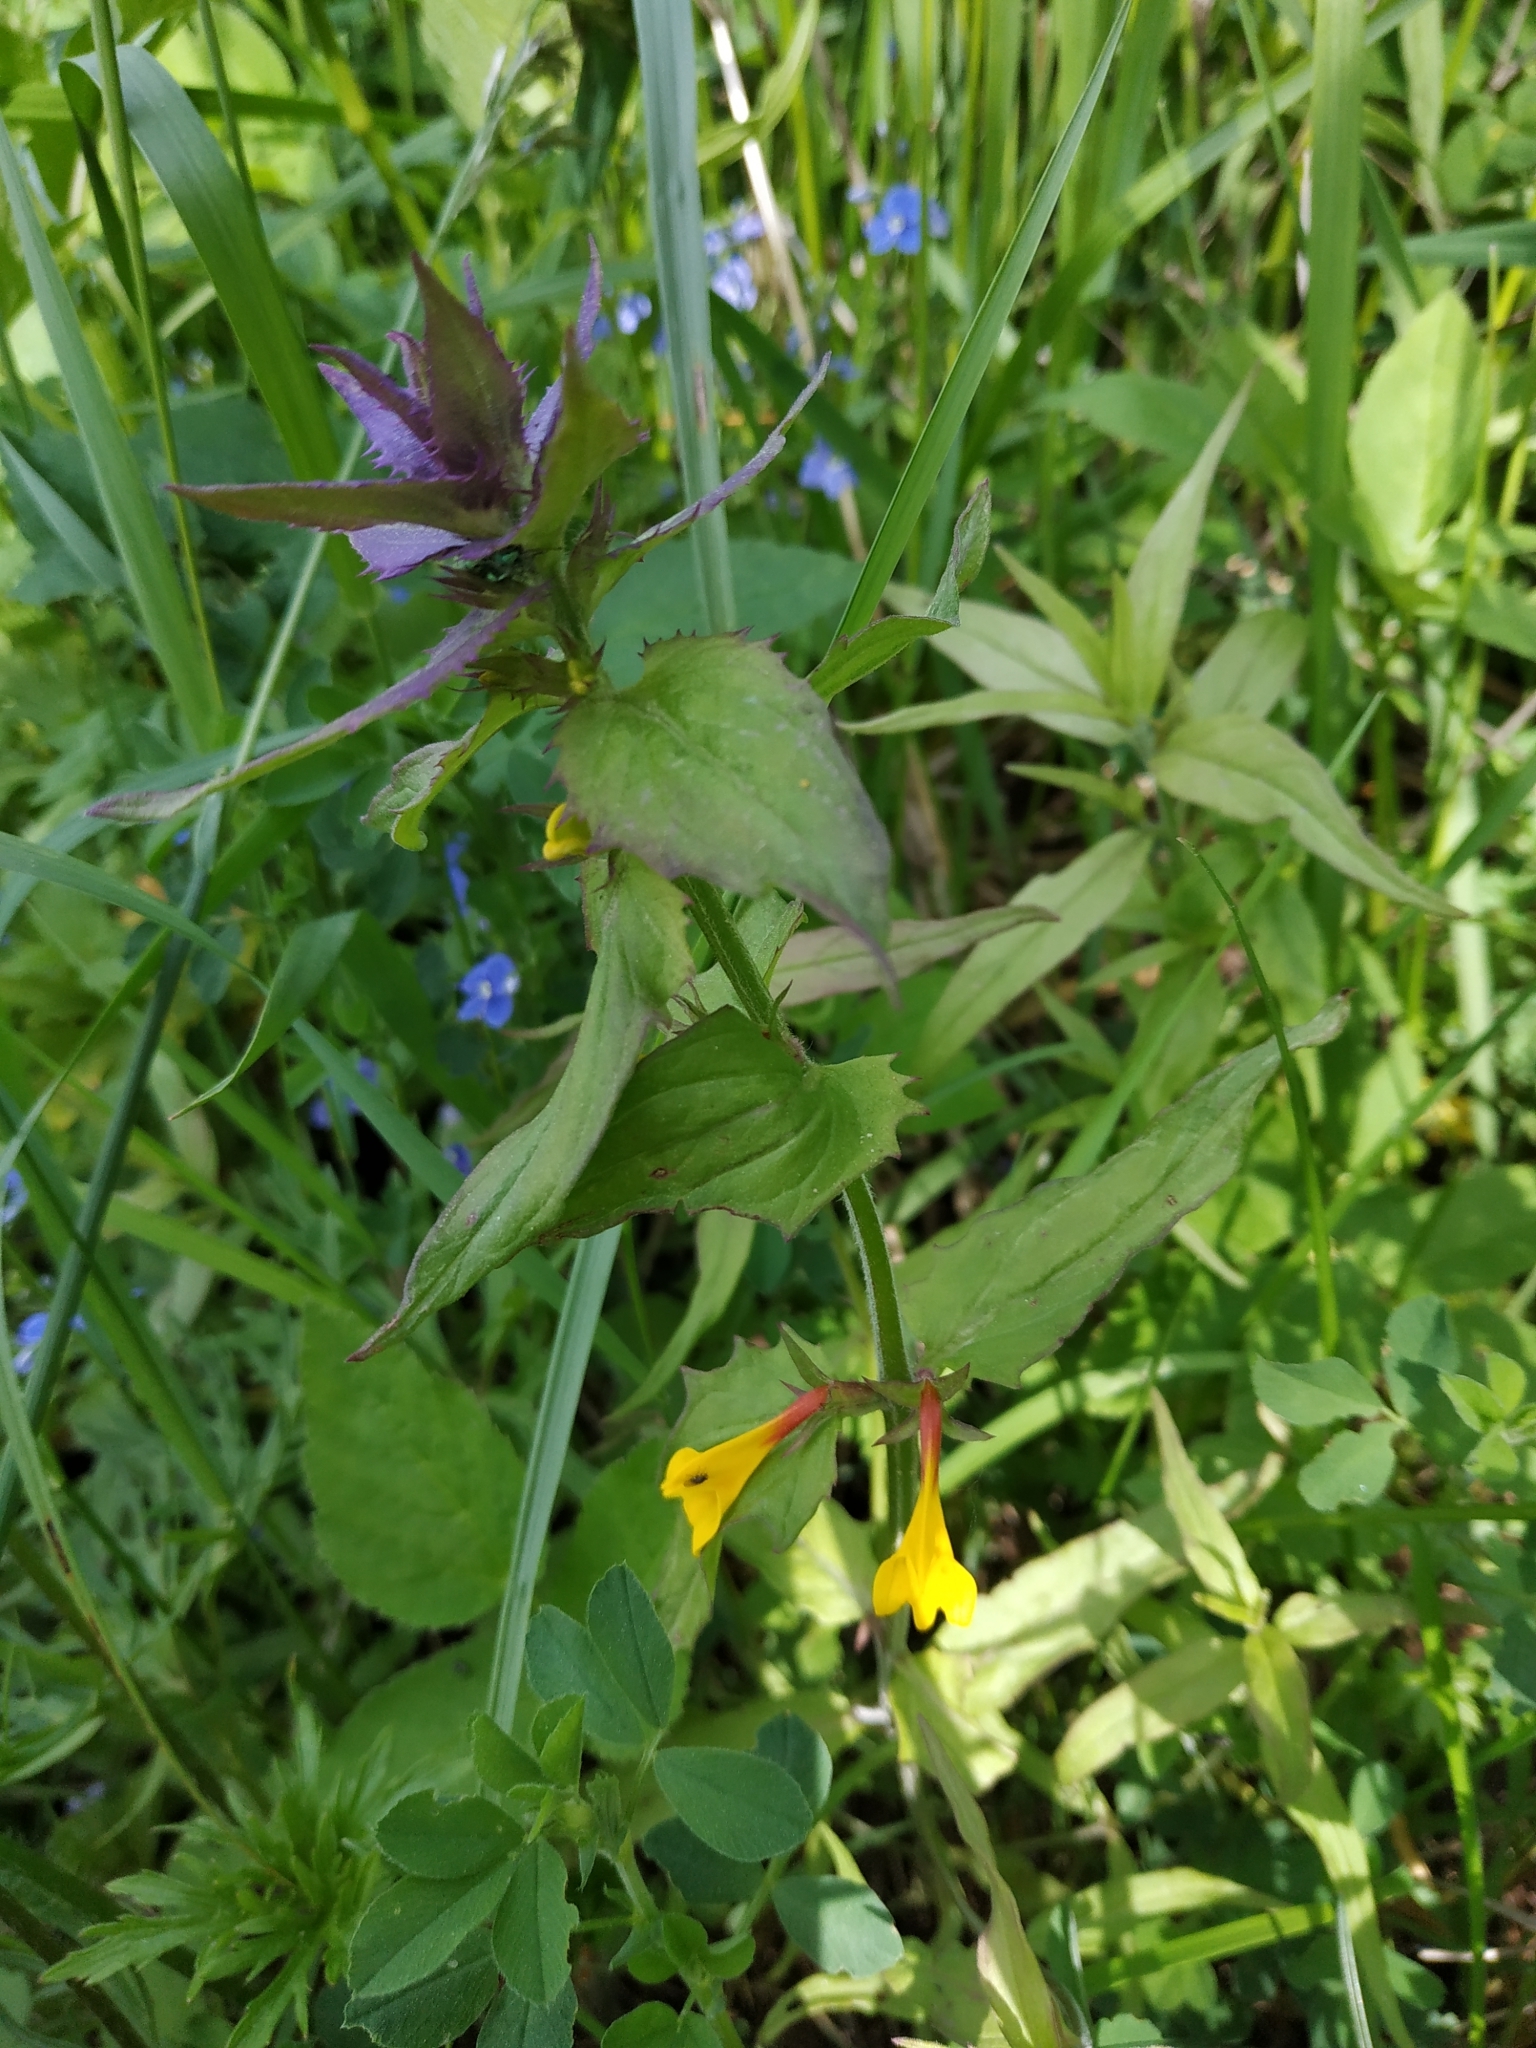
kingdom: Plantae
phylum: Tracheophyta
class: Magnoliopsida
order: Lamiales
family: Orobanchaceae
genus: Melampyrum
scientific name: Melampyrum nemorosum
